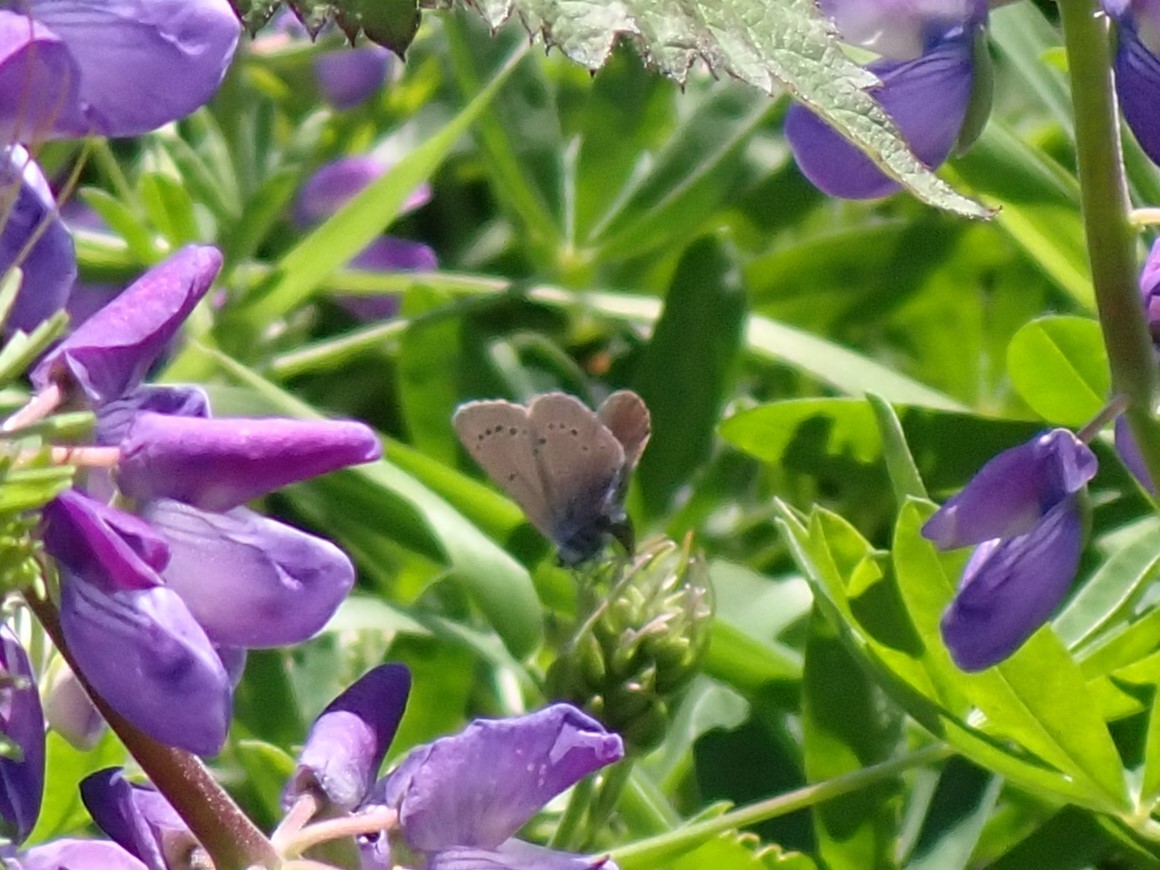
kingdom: Animalia
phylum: Arthropoda
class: Insecta
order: Lepidoptera
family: Lycaenidae
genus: Glaucopsyche
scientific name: Glaucopsyche lygdamus
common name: Silvery blue
